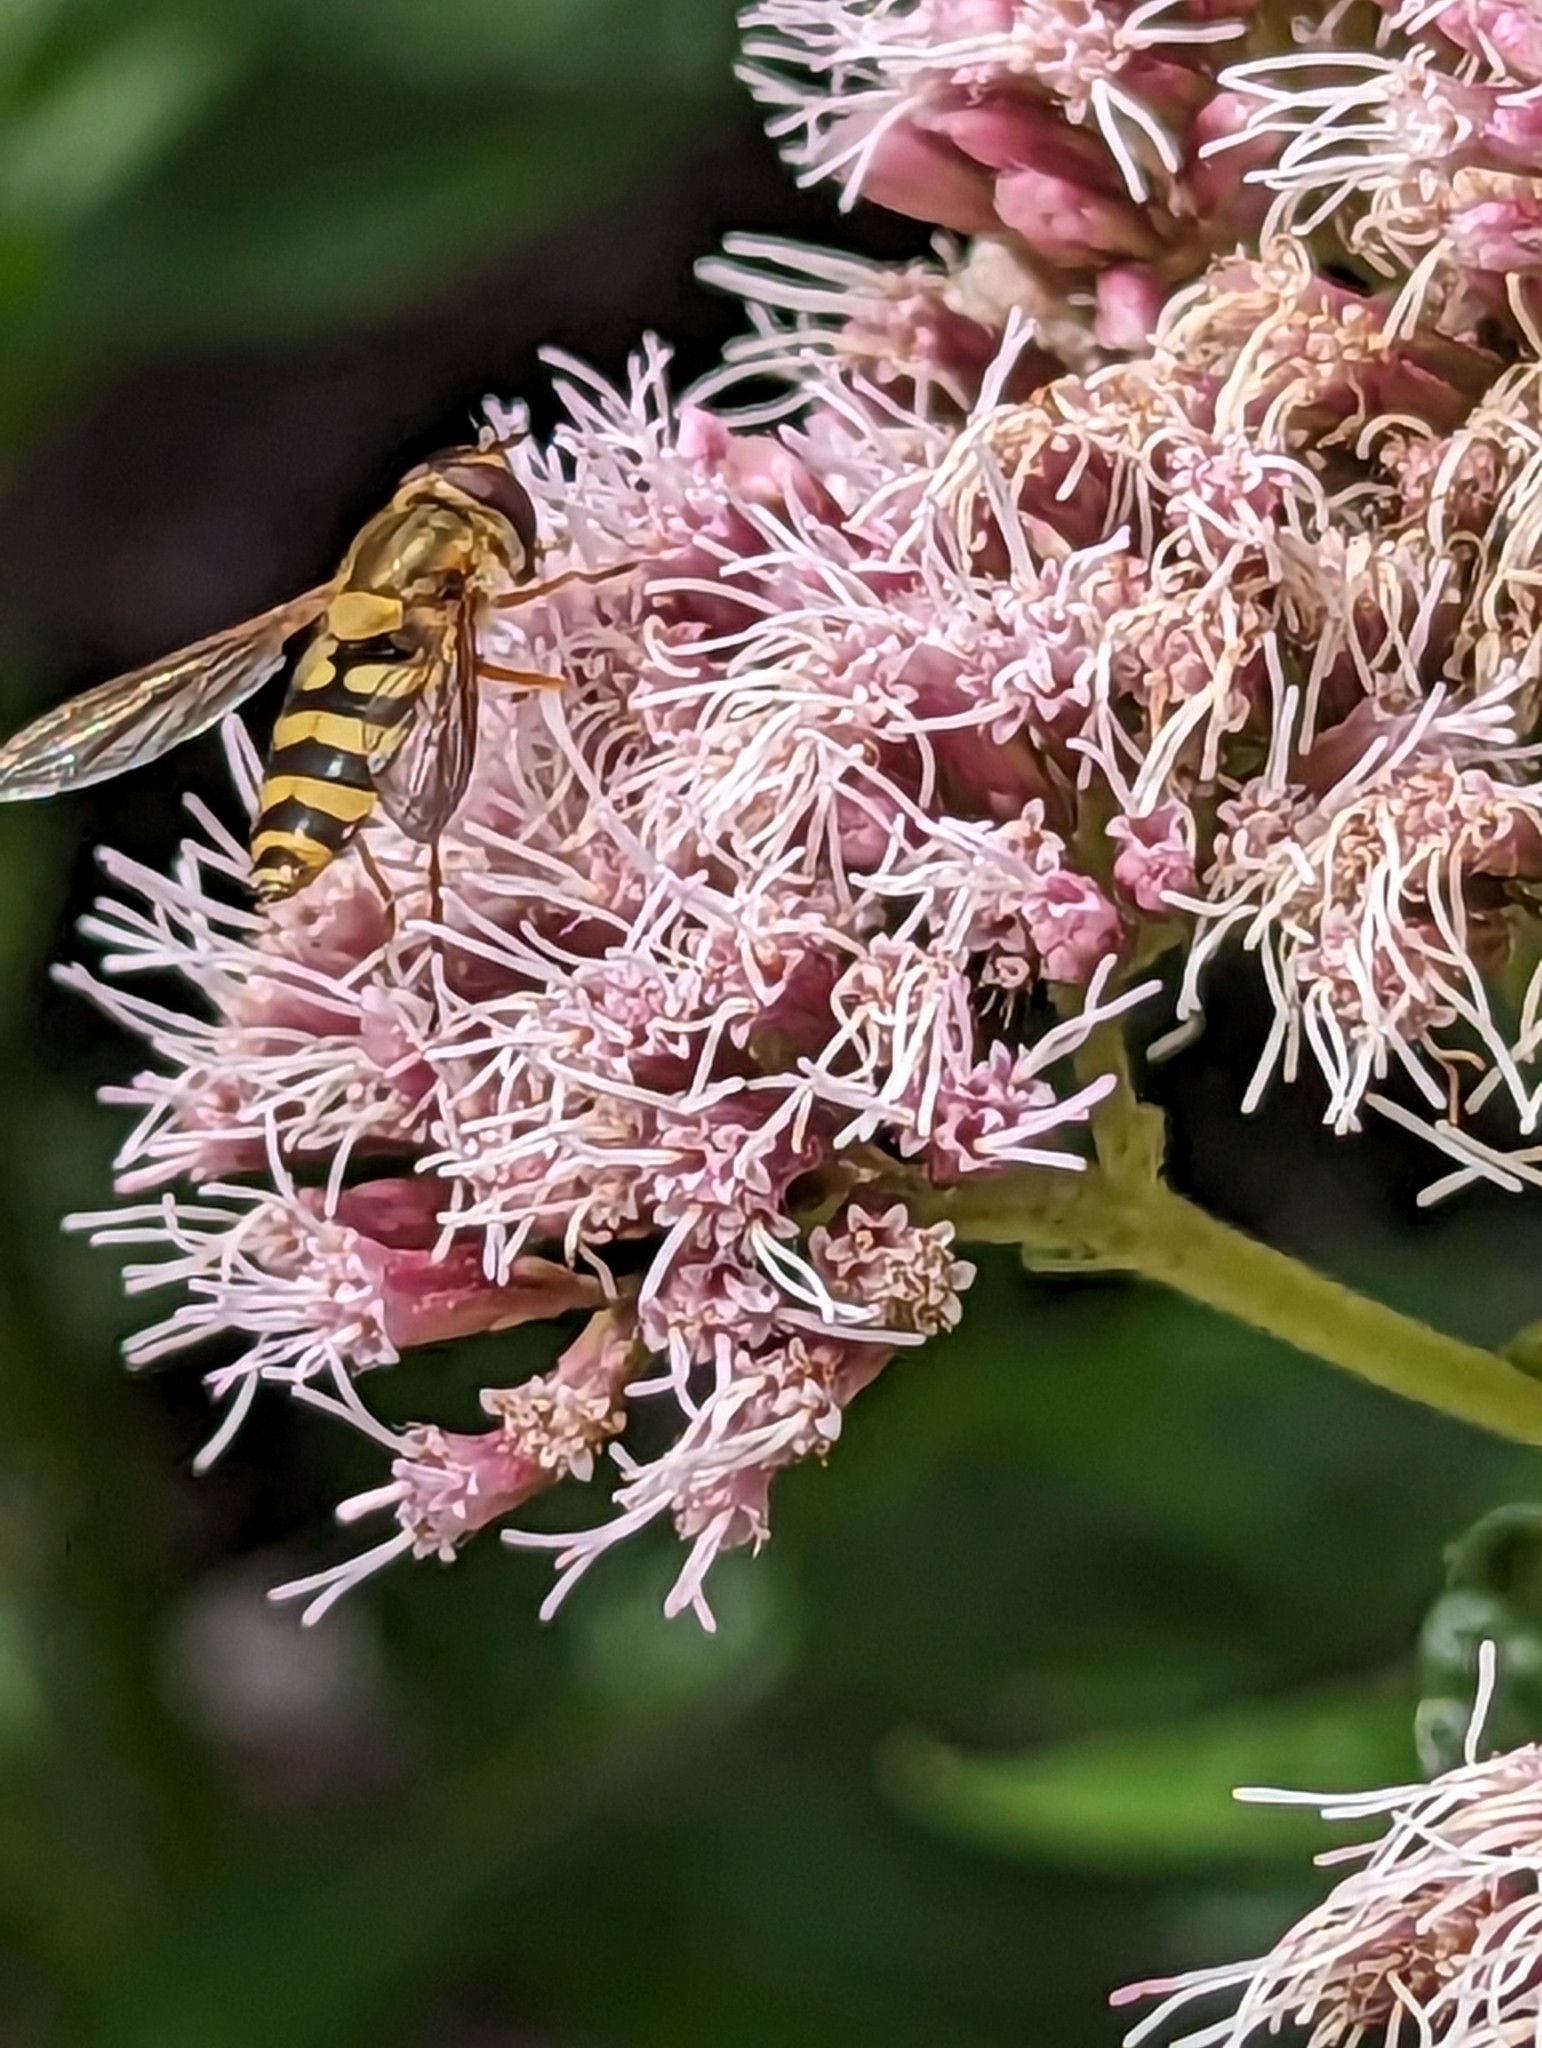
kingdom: Animalia
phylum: Arthropoda
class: Insecta
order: Diptera
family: Syrphidae
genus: Syrphus
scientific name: Syrphus
